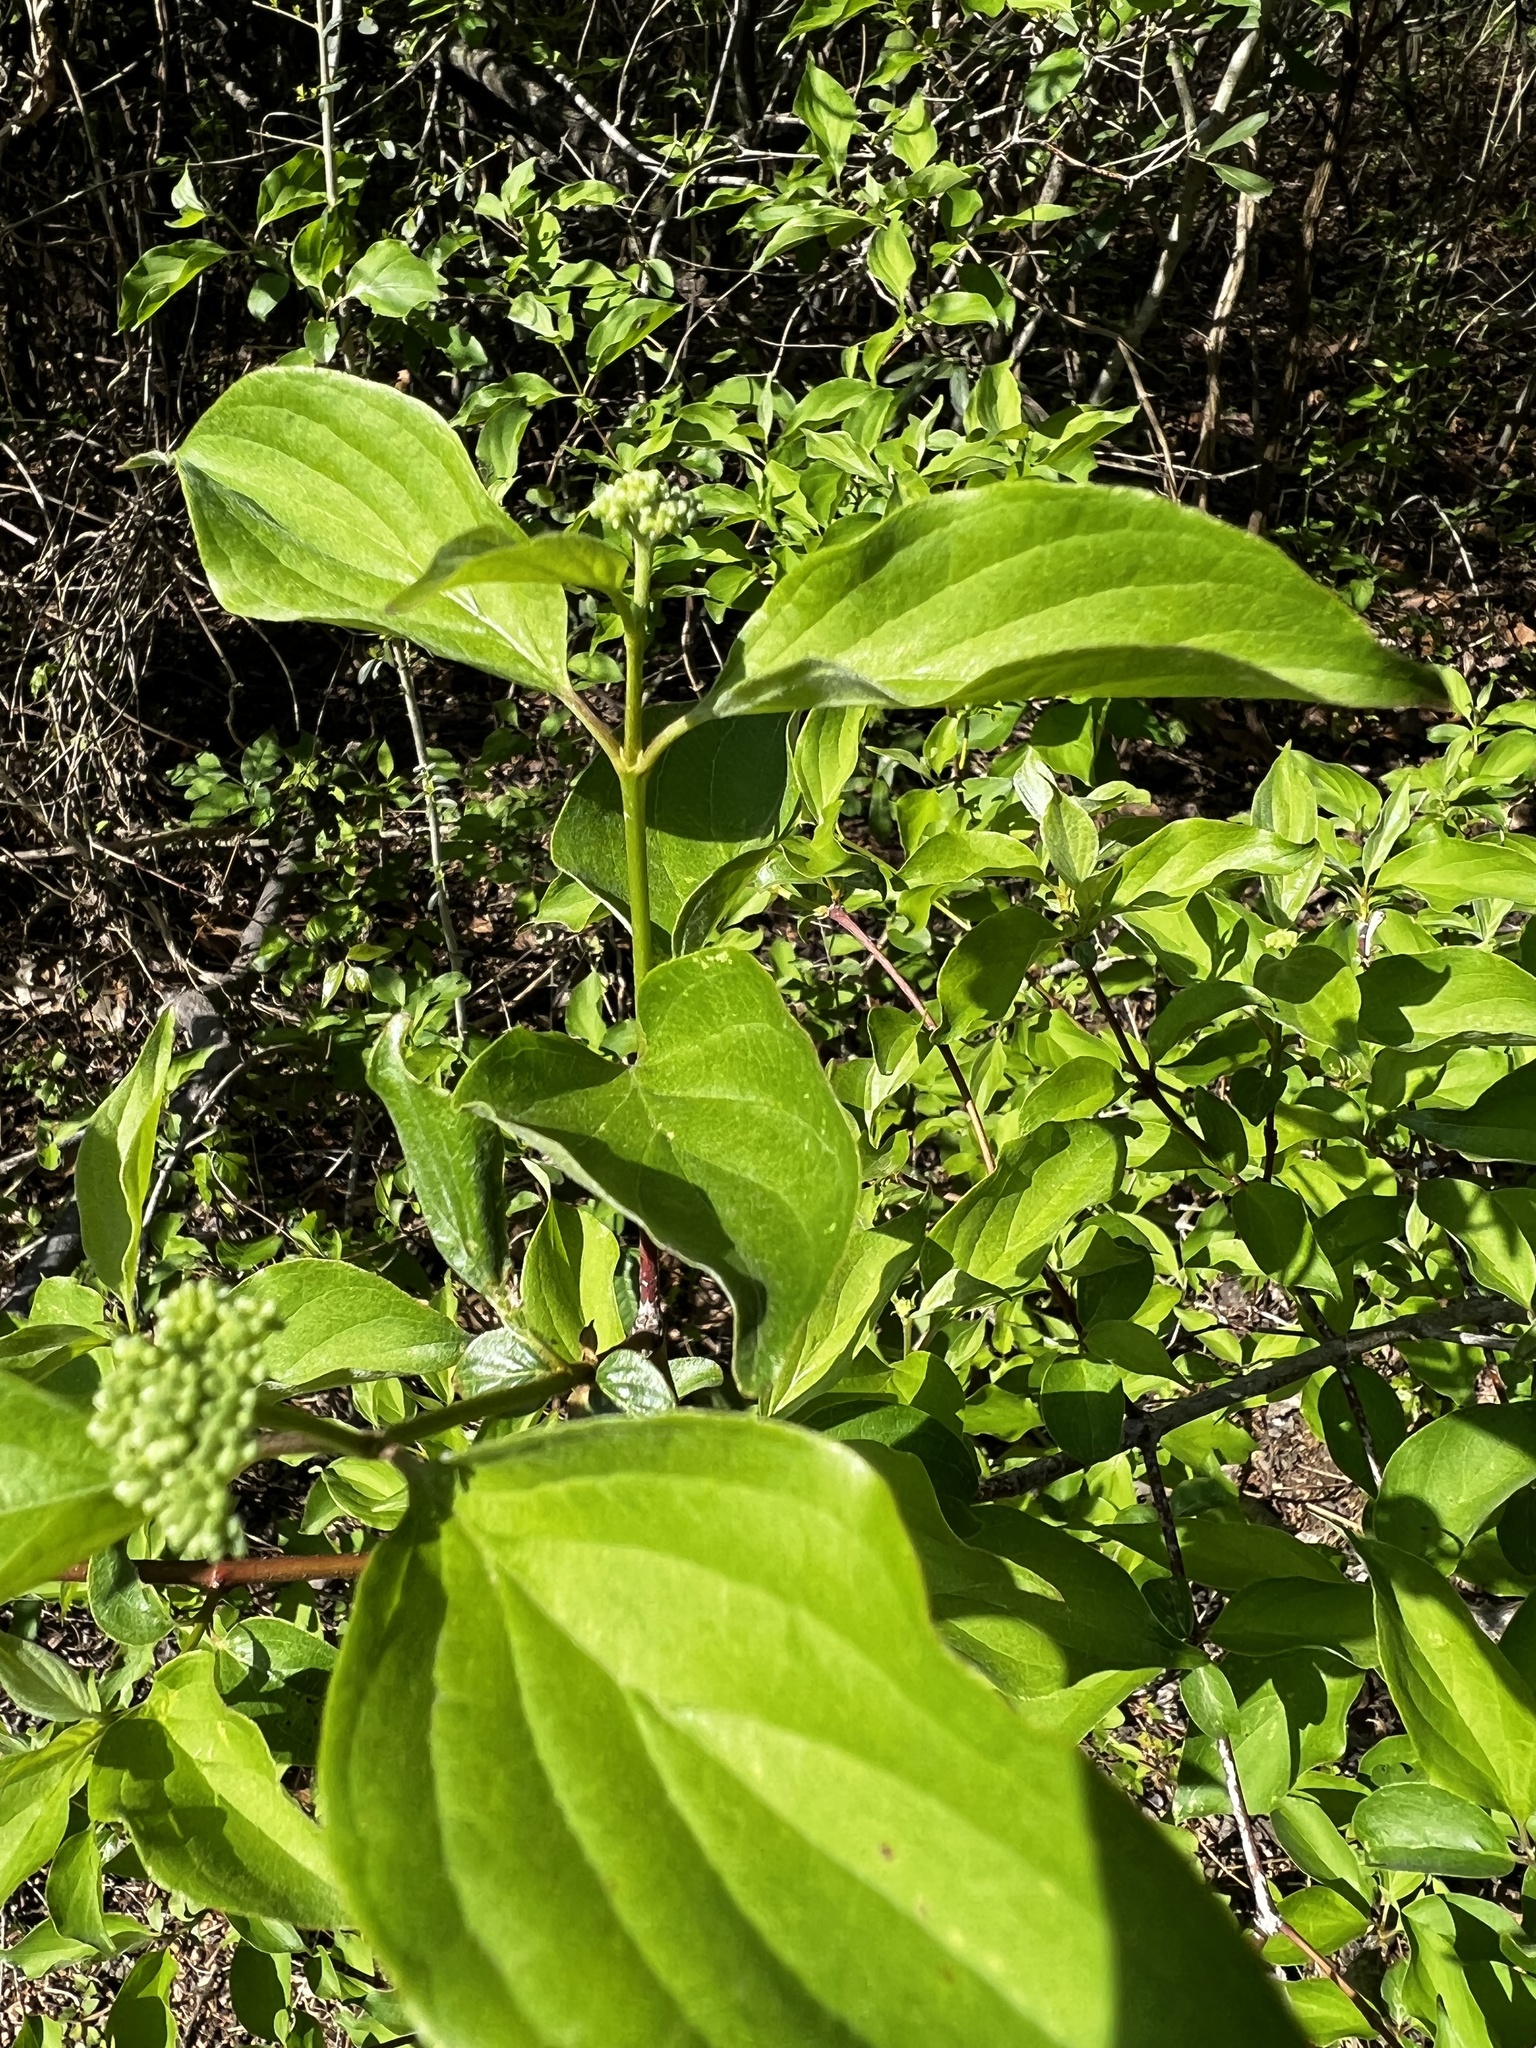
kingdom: Plantae
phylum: Tracheophyta
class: Magnoliopsida
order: Cornales
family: Cornaceae
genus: Cornus
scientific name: Cornus drummondii
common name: Rough-leaf dogwood
